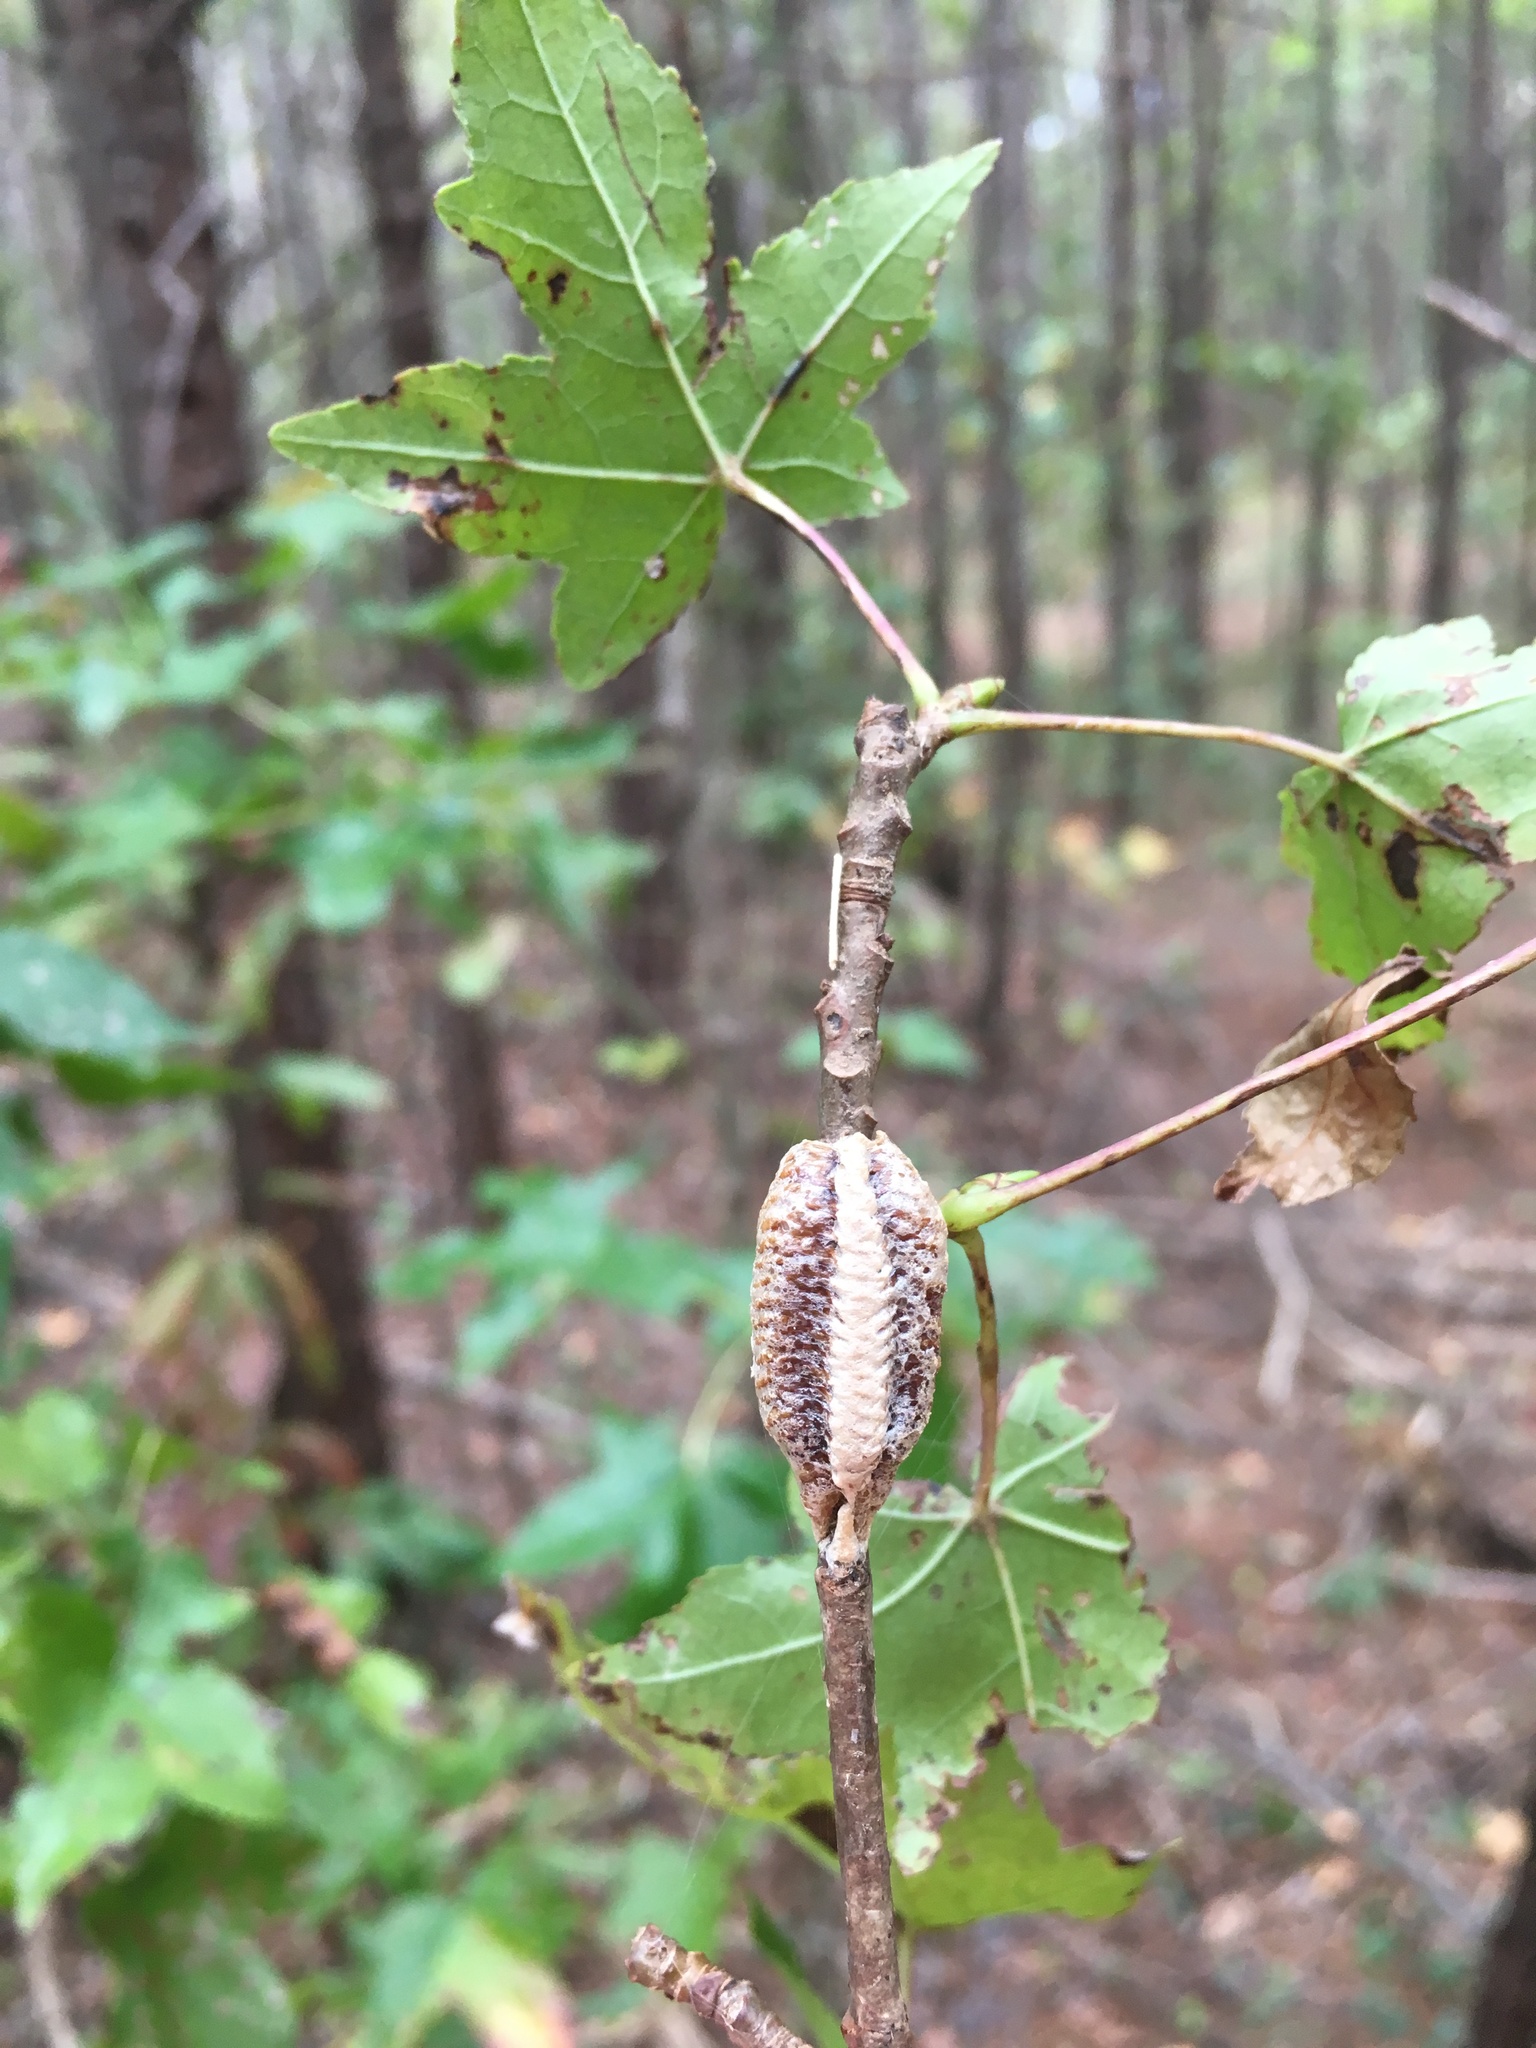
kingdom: Animalia
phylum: Arthropoda
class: Insecta
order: Mantodea
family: Mantidae
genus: Stagmomantis
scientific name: Stagmomantis carolina
